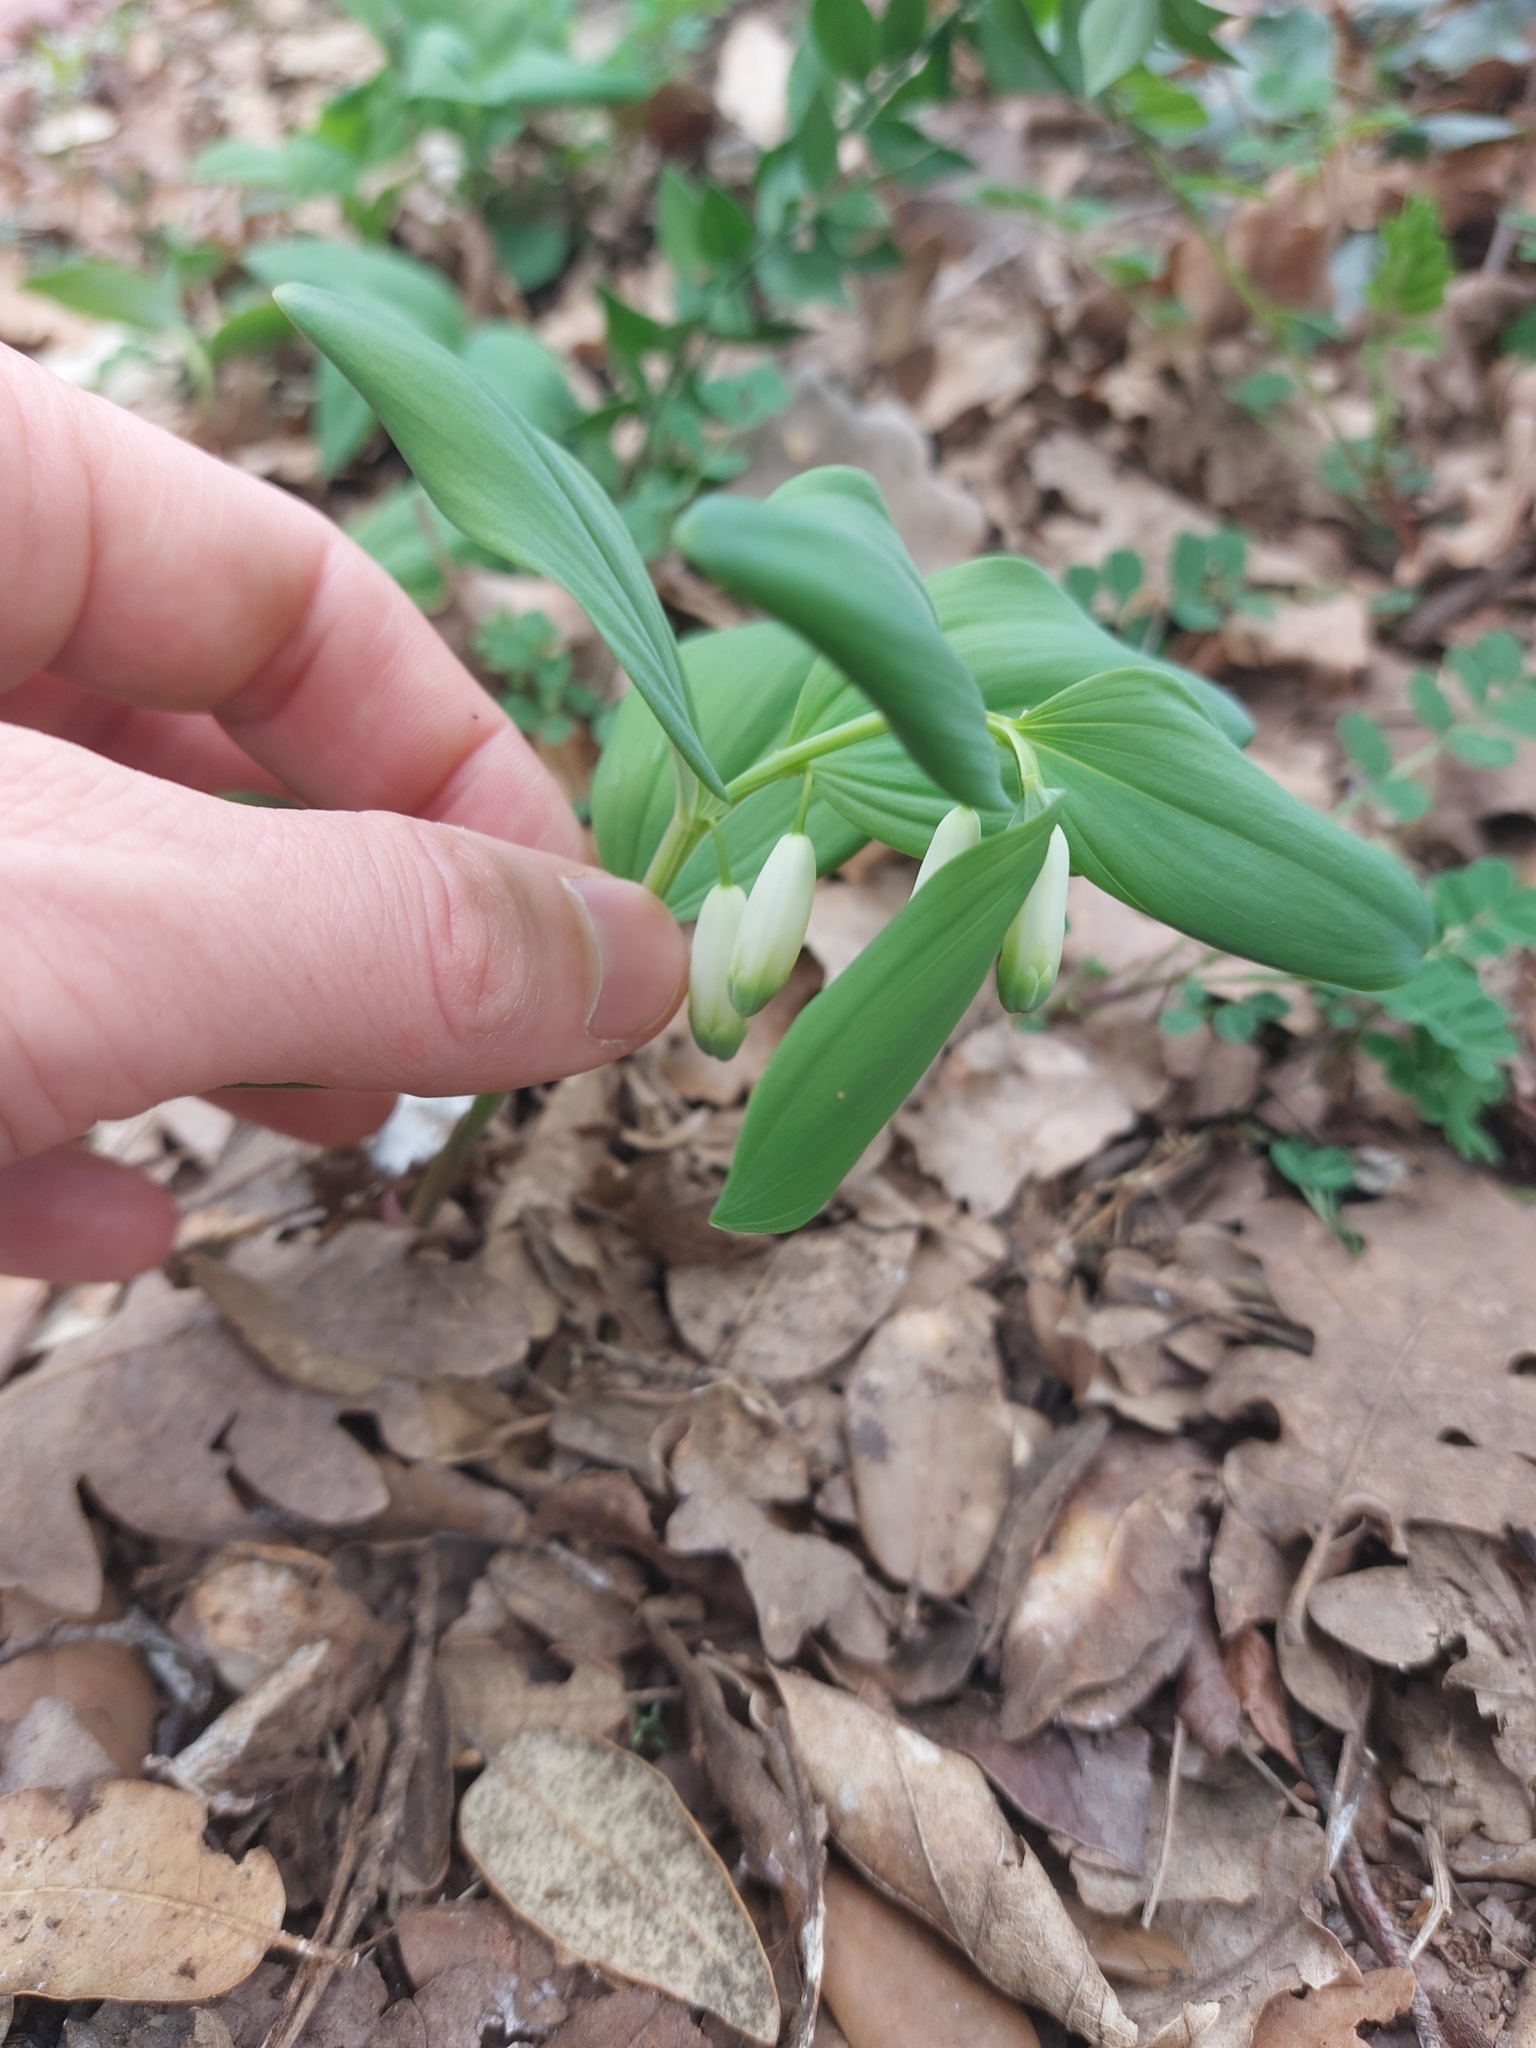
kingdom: Plantae
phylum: Tracheophyta
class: Liliopsida
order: Asparagales
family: Asparagaceae
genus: Polygonatum
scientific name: Polygonatum odoratum
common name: Angular solomon's-seal
